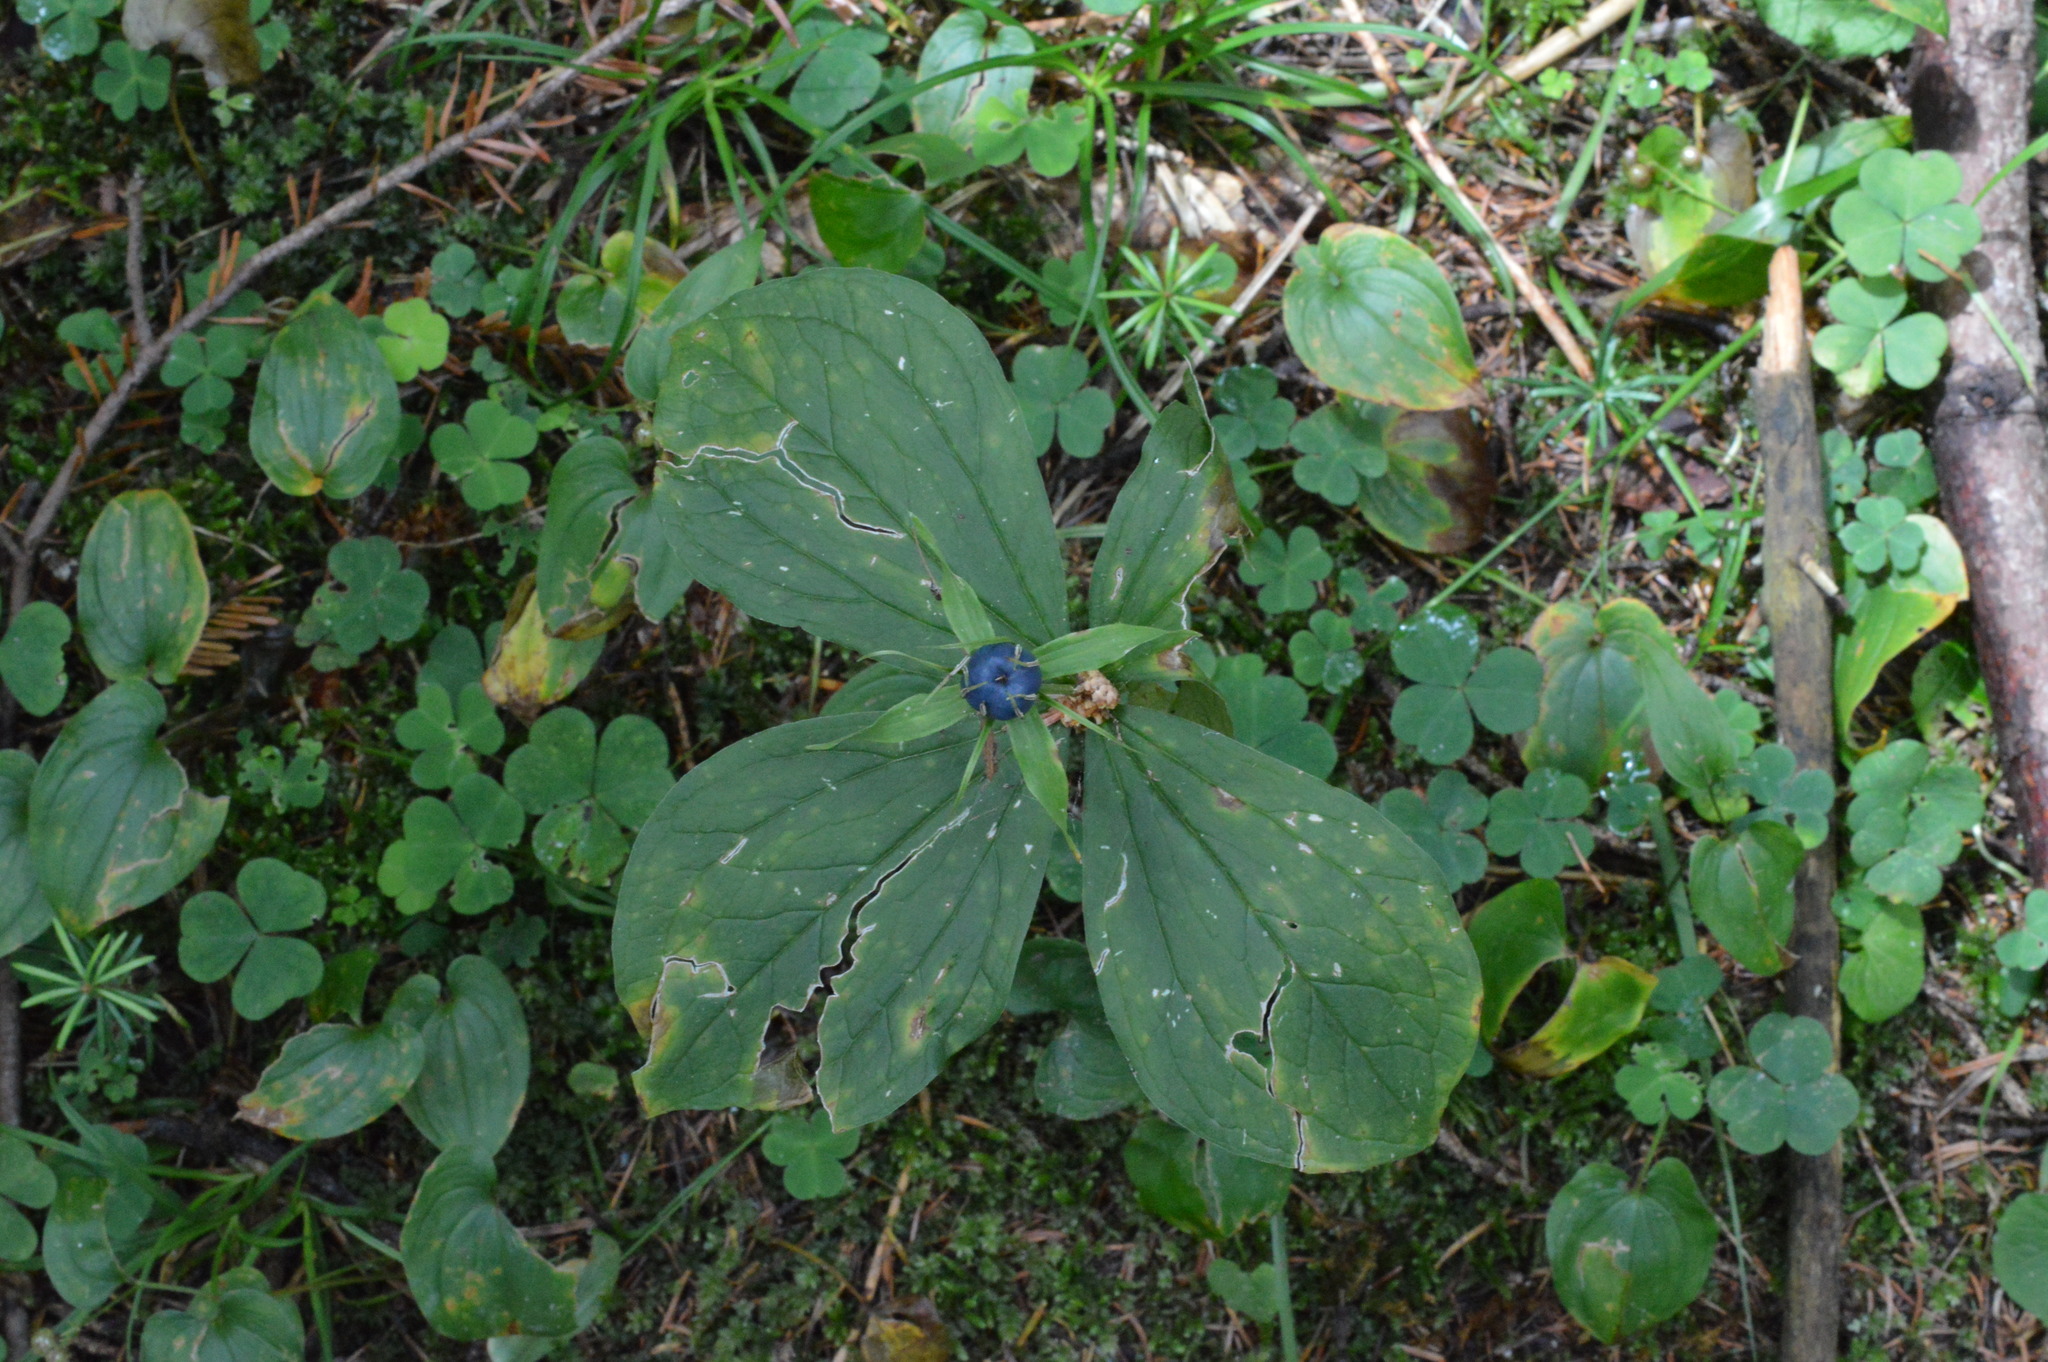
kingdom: Plantae
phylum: Tracheophyta
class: Liliopsida
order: Liliales
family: Melanthiaceae
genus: Paris
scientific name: Paris quadrifolia
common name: Herb-paris
